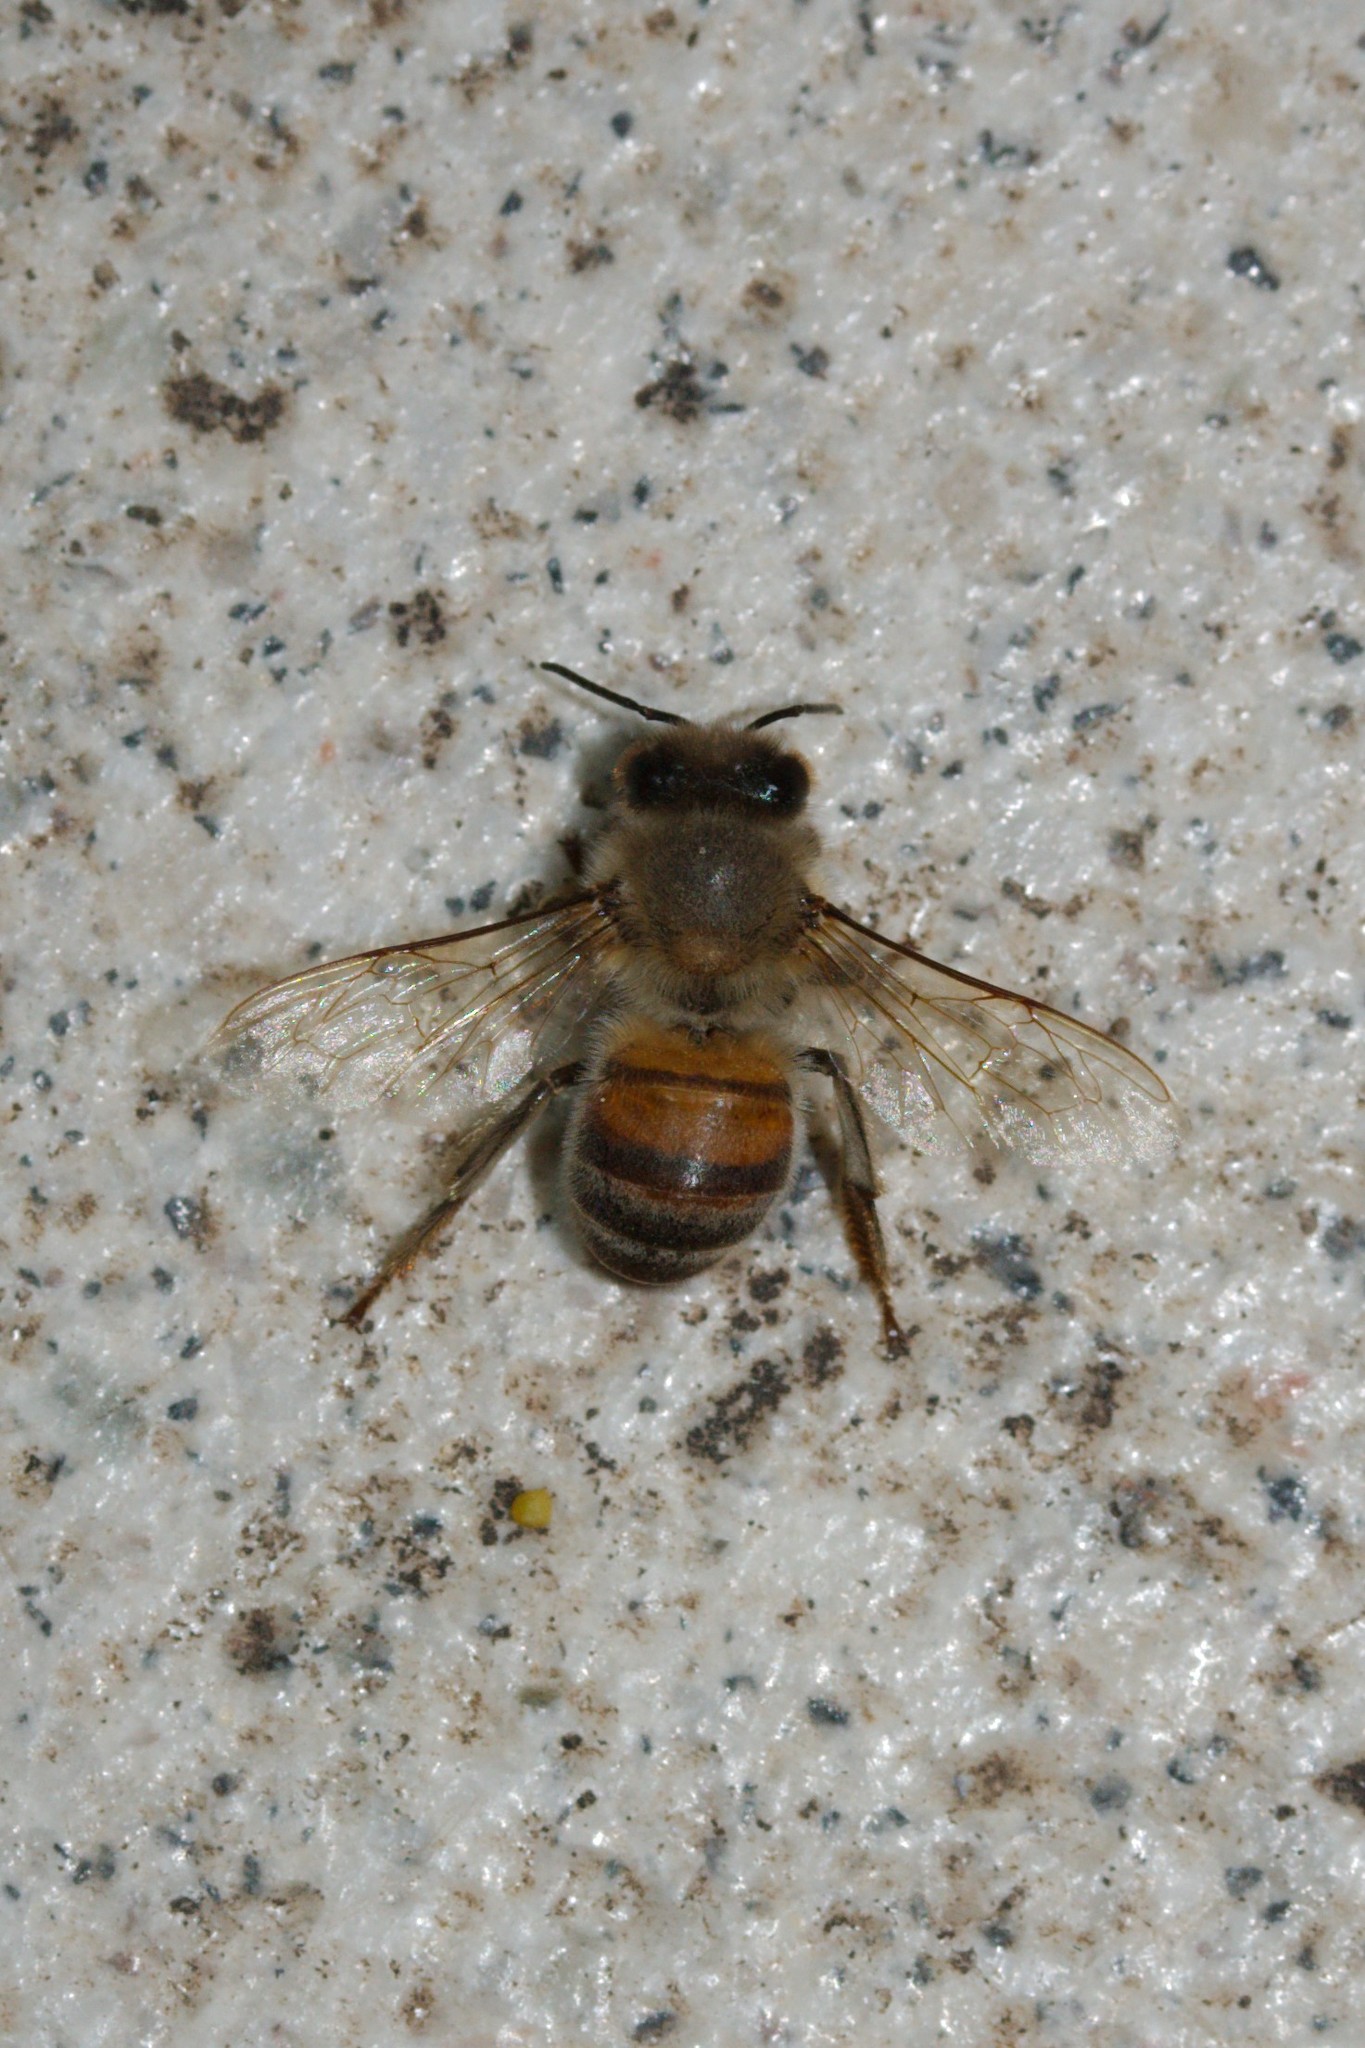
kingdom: Animalia
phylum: Arthropoda
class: Insecta
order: Hymenoptera
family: Apidae
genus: Apis
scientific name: Apis mellifera
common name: Honey bee
